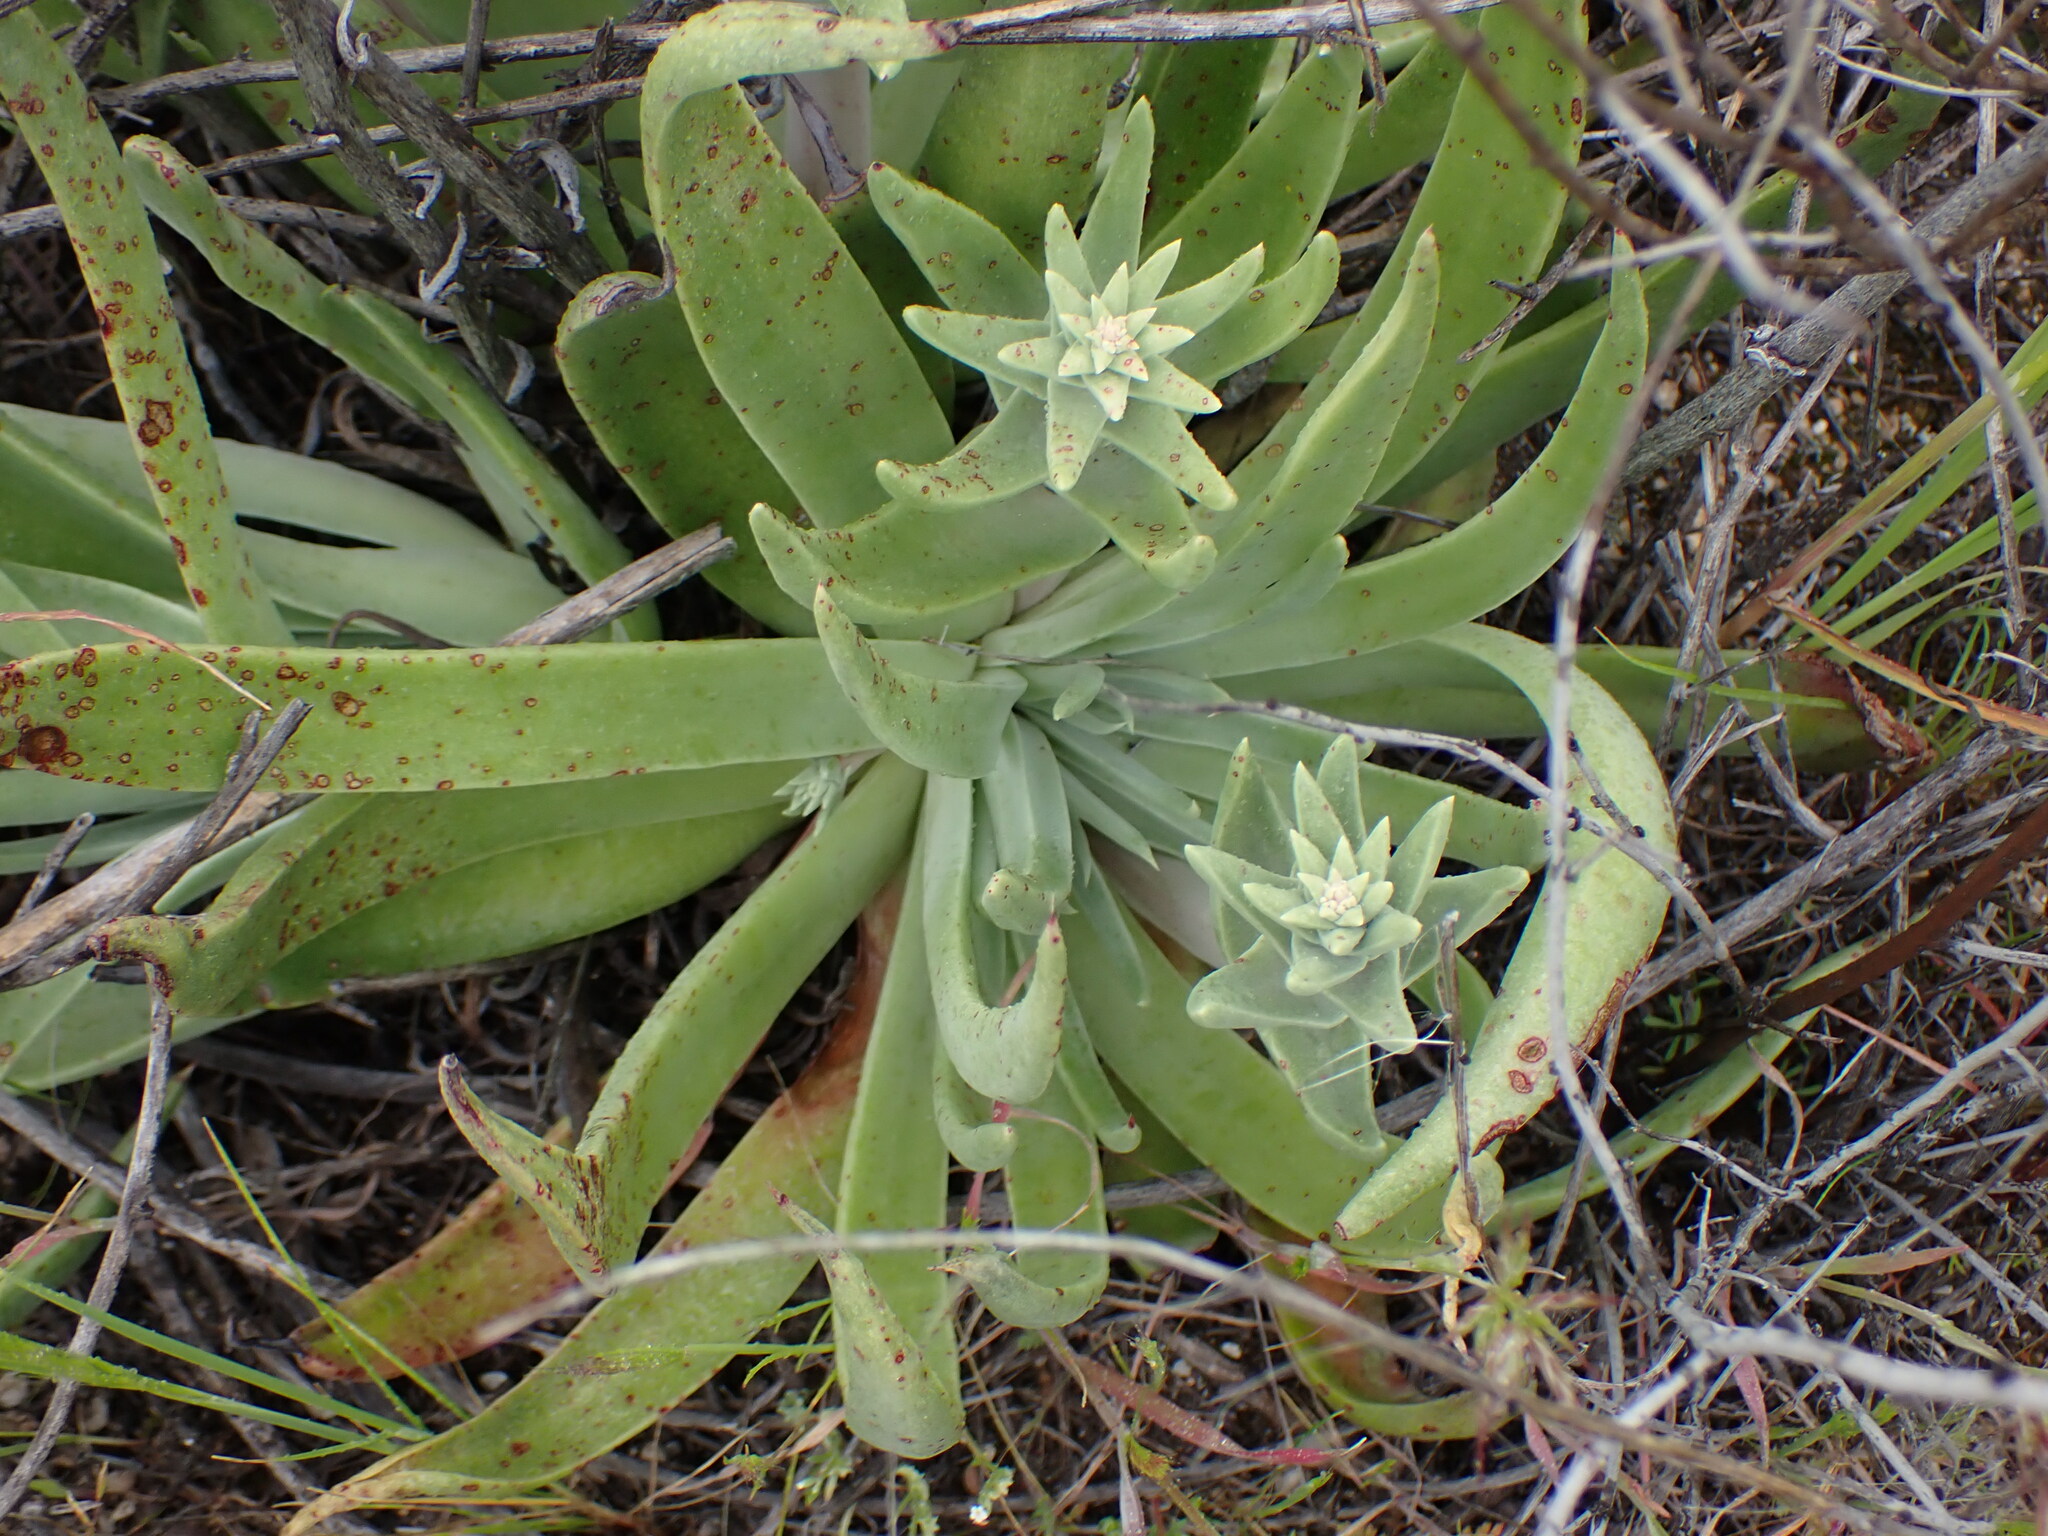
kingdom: Plantae
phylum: Tracheophyta
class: Magnoliopsida
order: Saxifragales
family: Crassulaceae
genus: Dudleya
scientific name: Dudleya lanceolata
